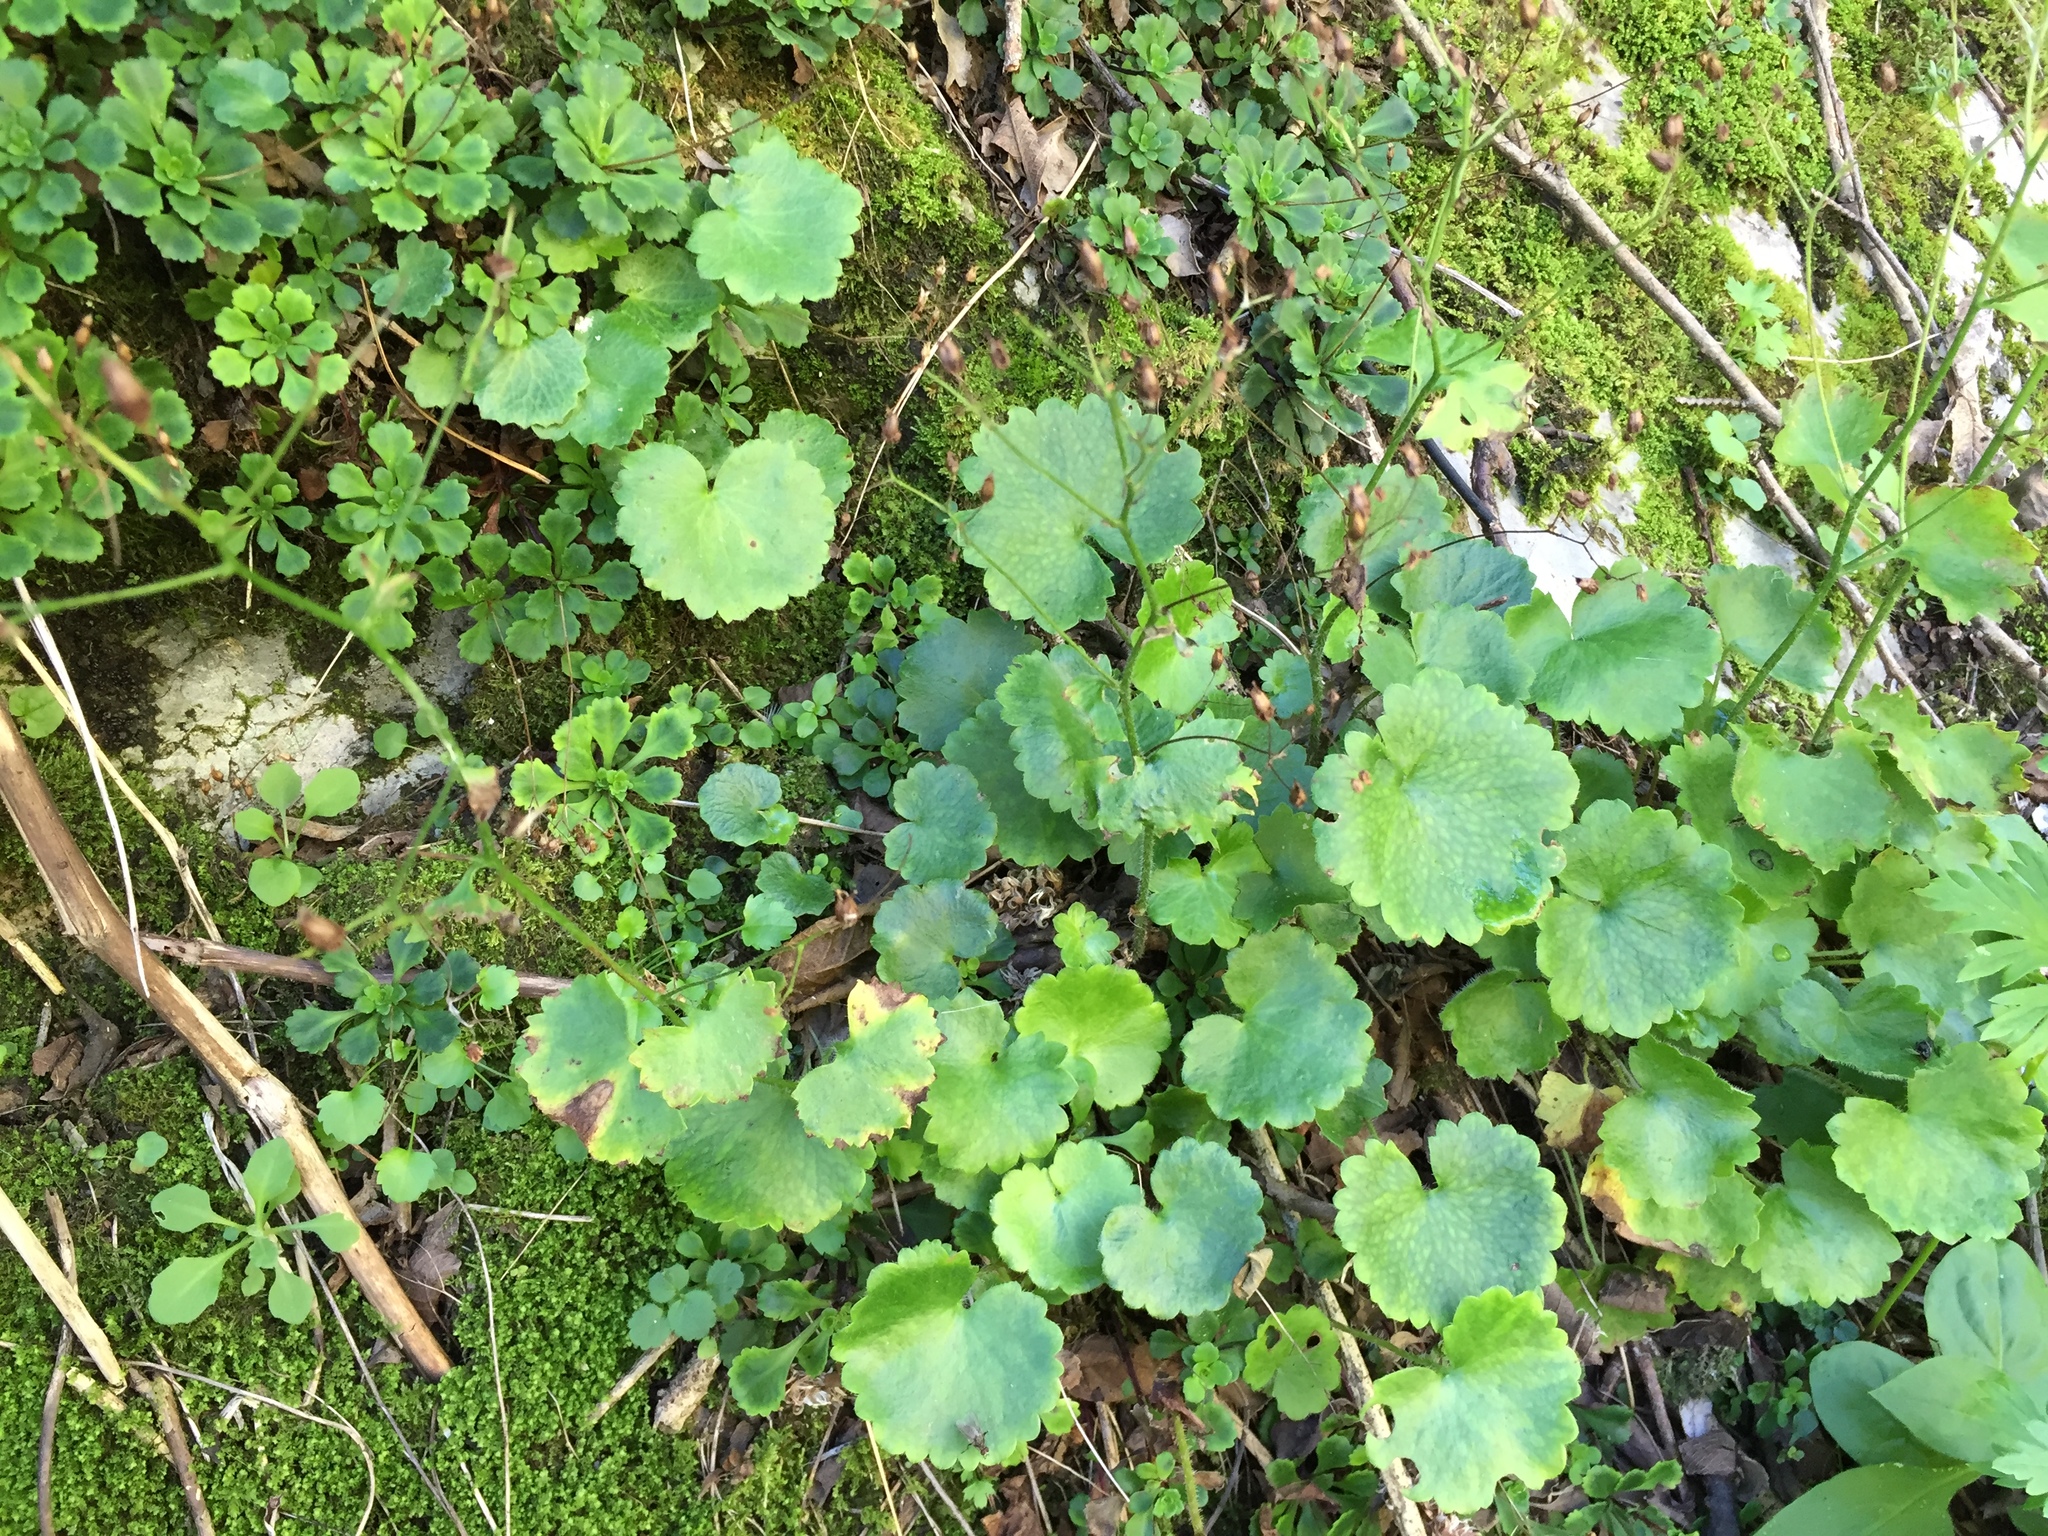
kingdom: Plantae
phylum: Tracheophyta
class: Magnoliopsida
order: Saxifragales
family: Saxifragaceae
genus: Saxifraga
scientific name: Saxifraga rotundifolia
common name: Round-leaved saxifrage
